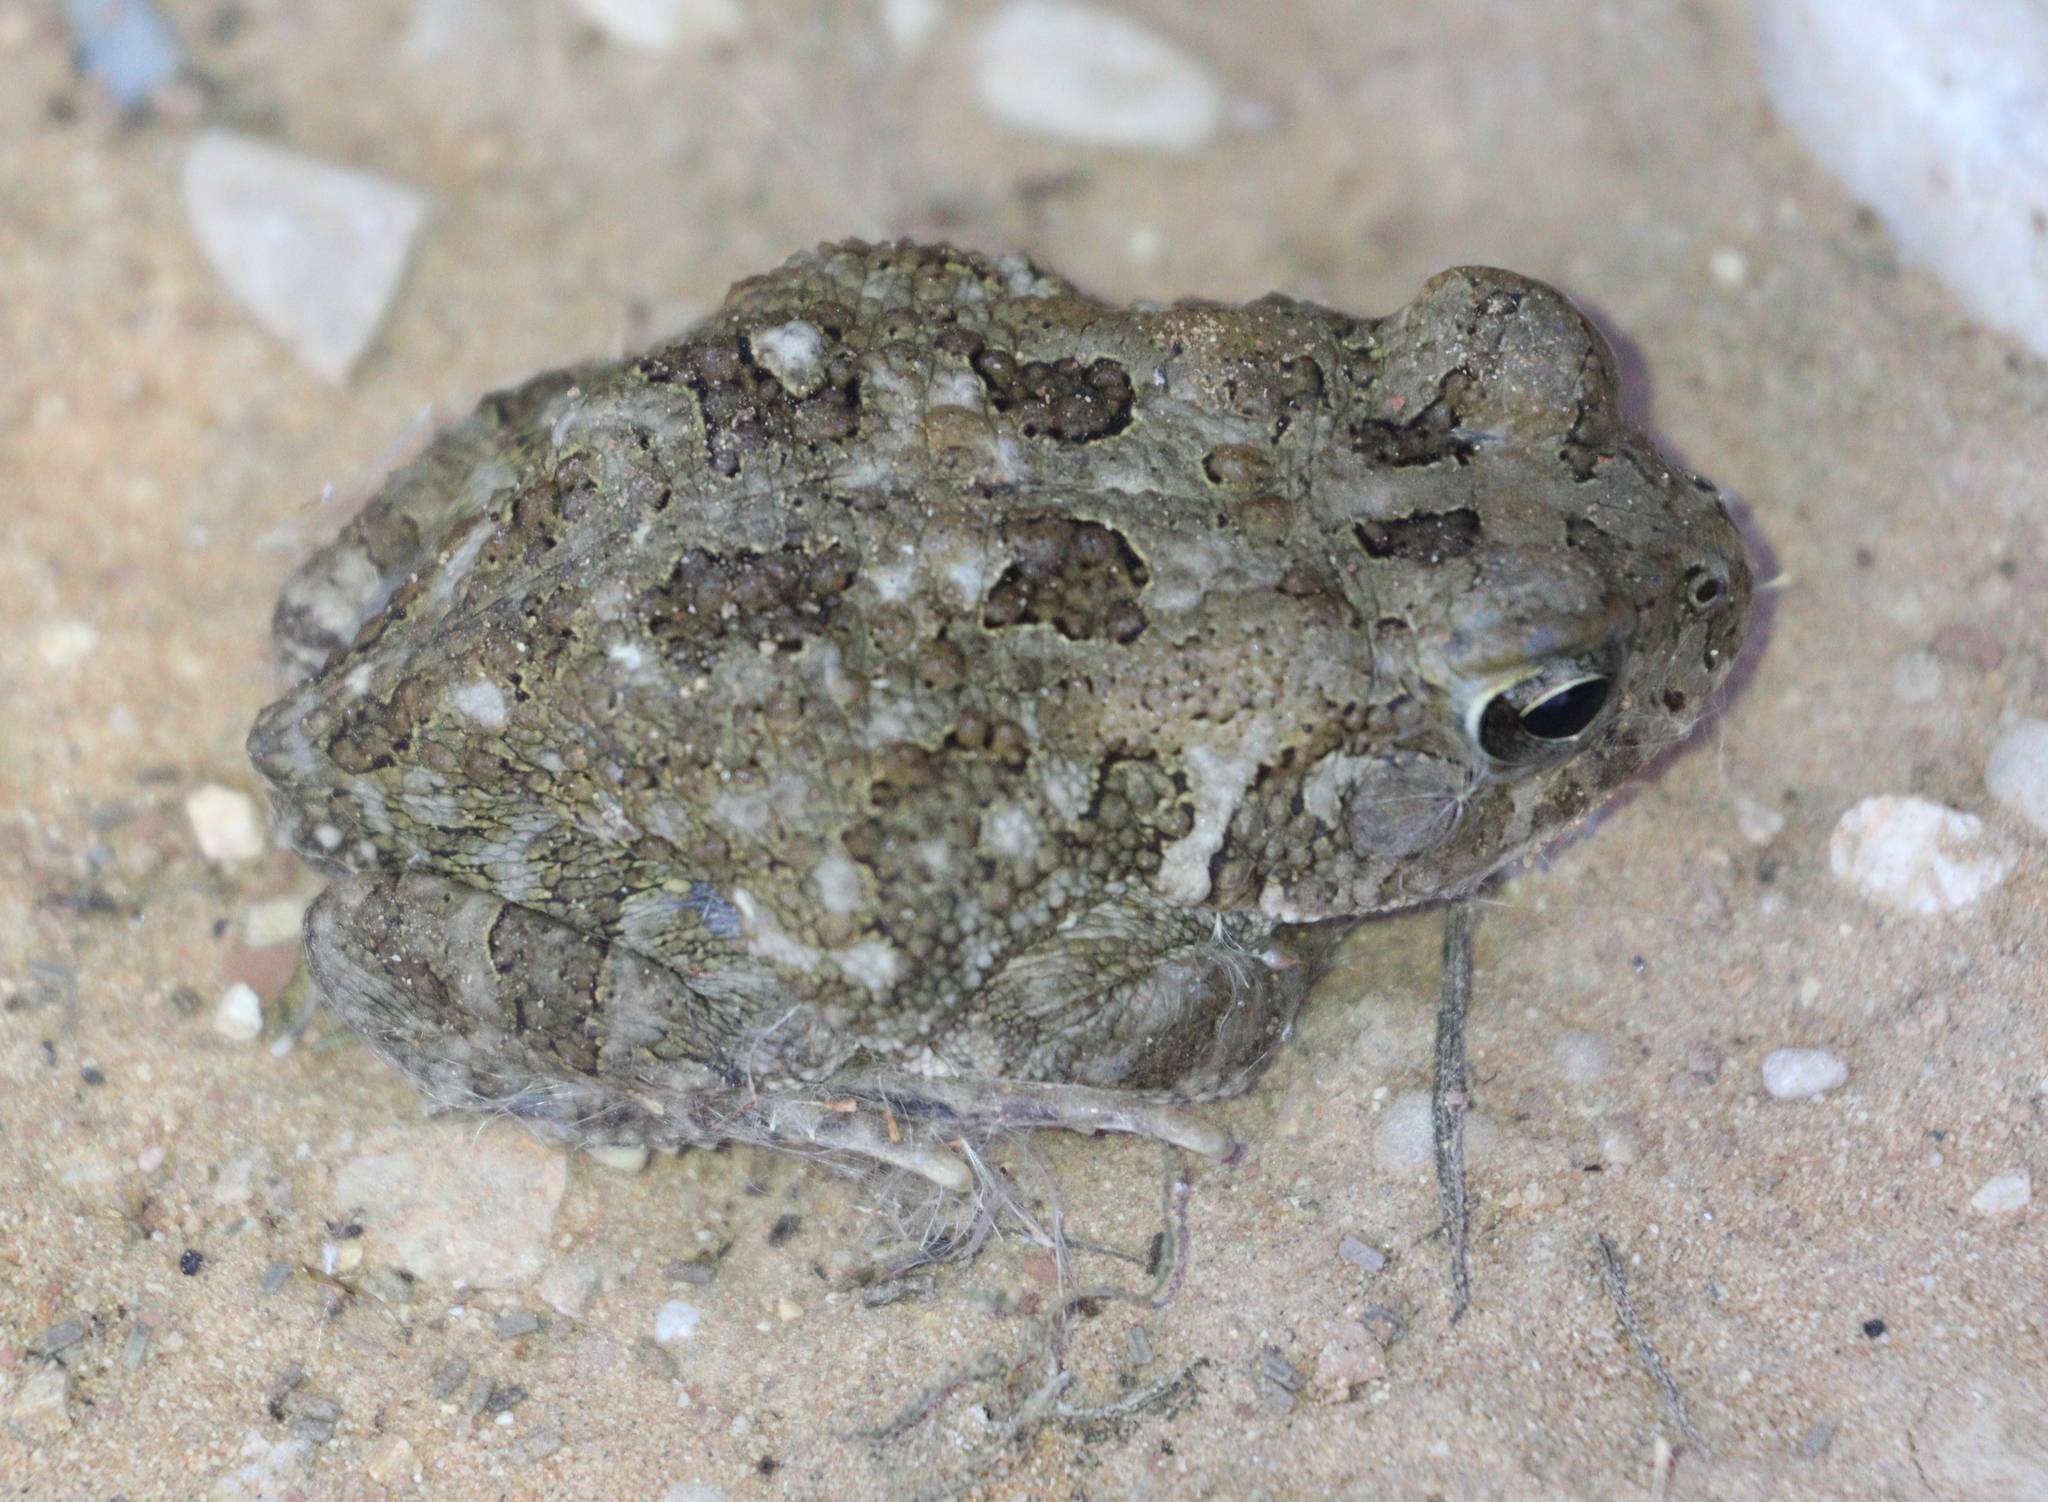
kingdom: Animalia
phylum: Chordata
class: Amphibia
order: Anura
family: Bufonidae
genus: Sclerophrys
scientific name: Sclerophrys arabica
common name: Arabian toad
